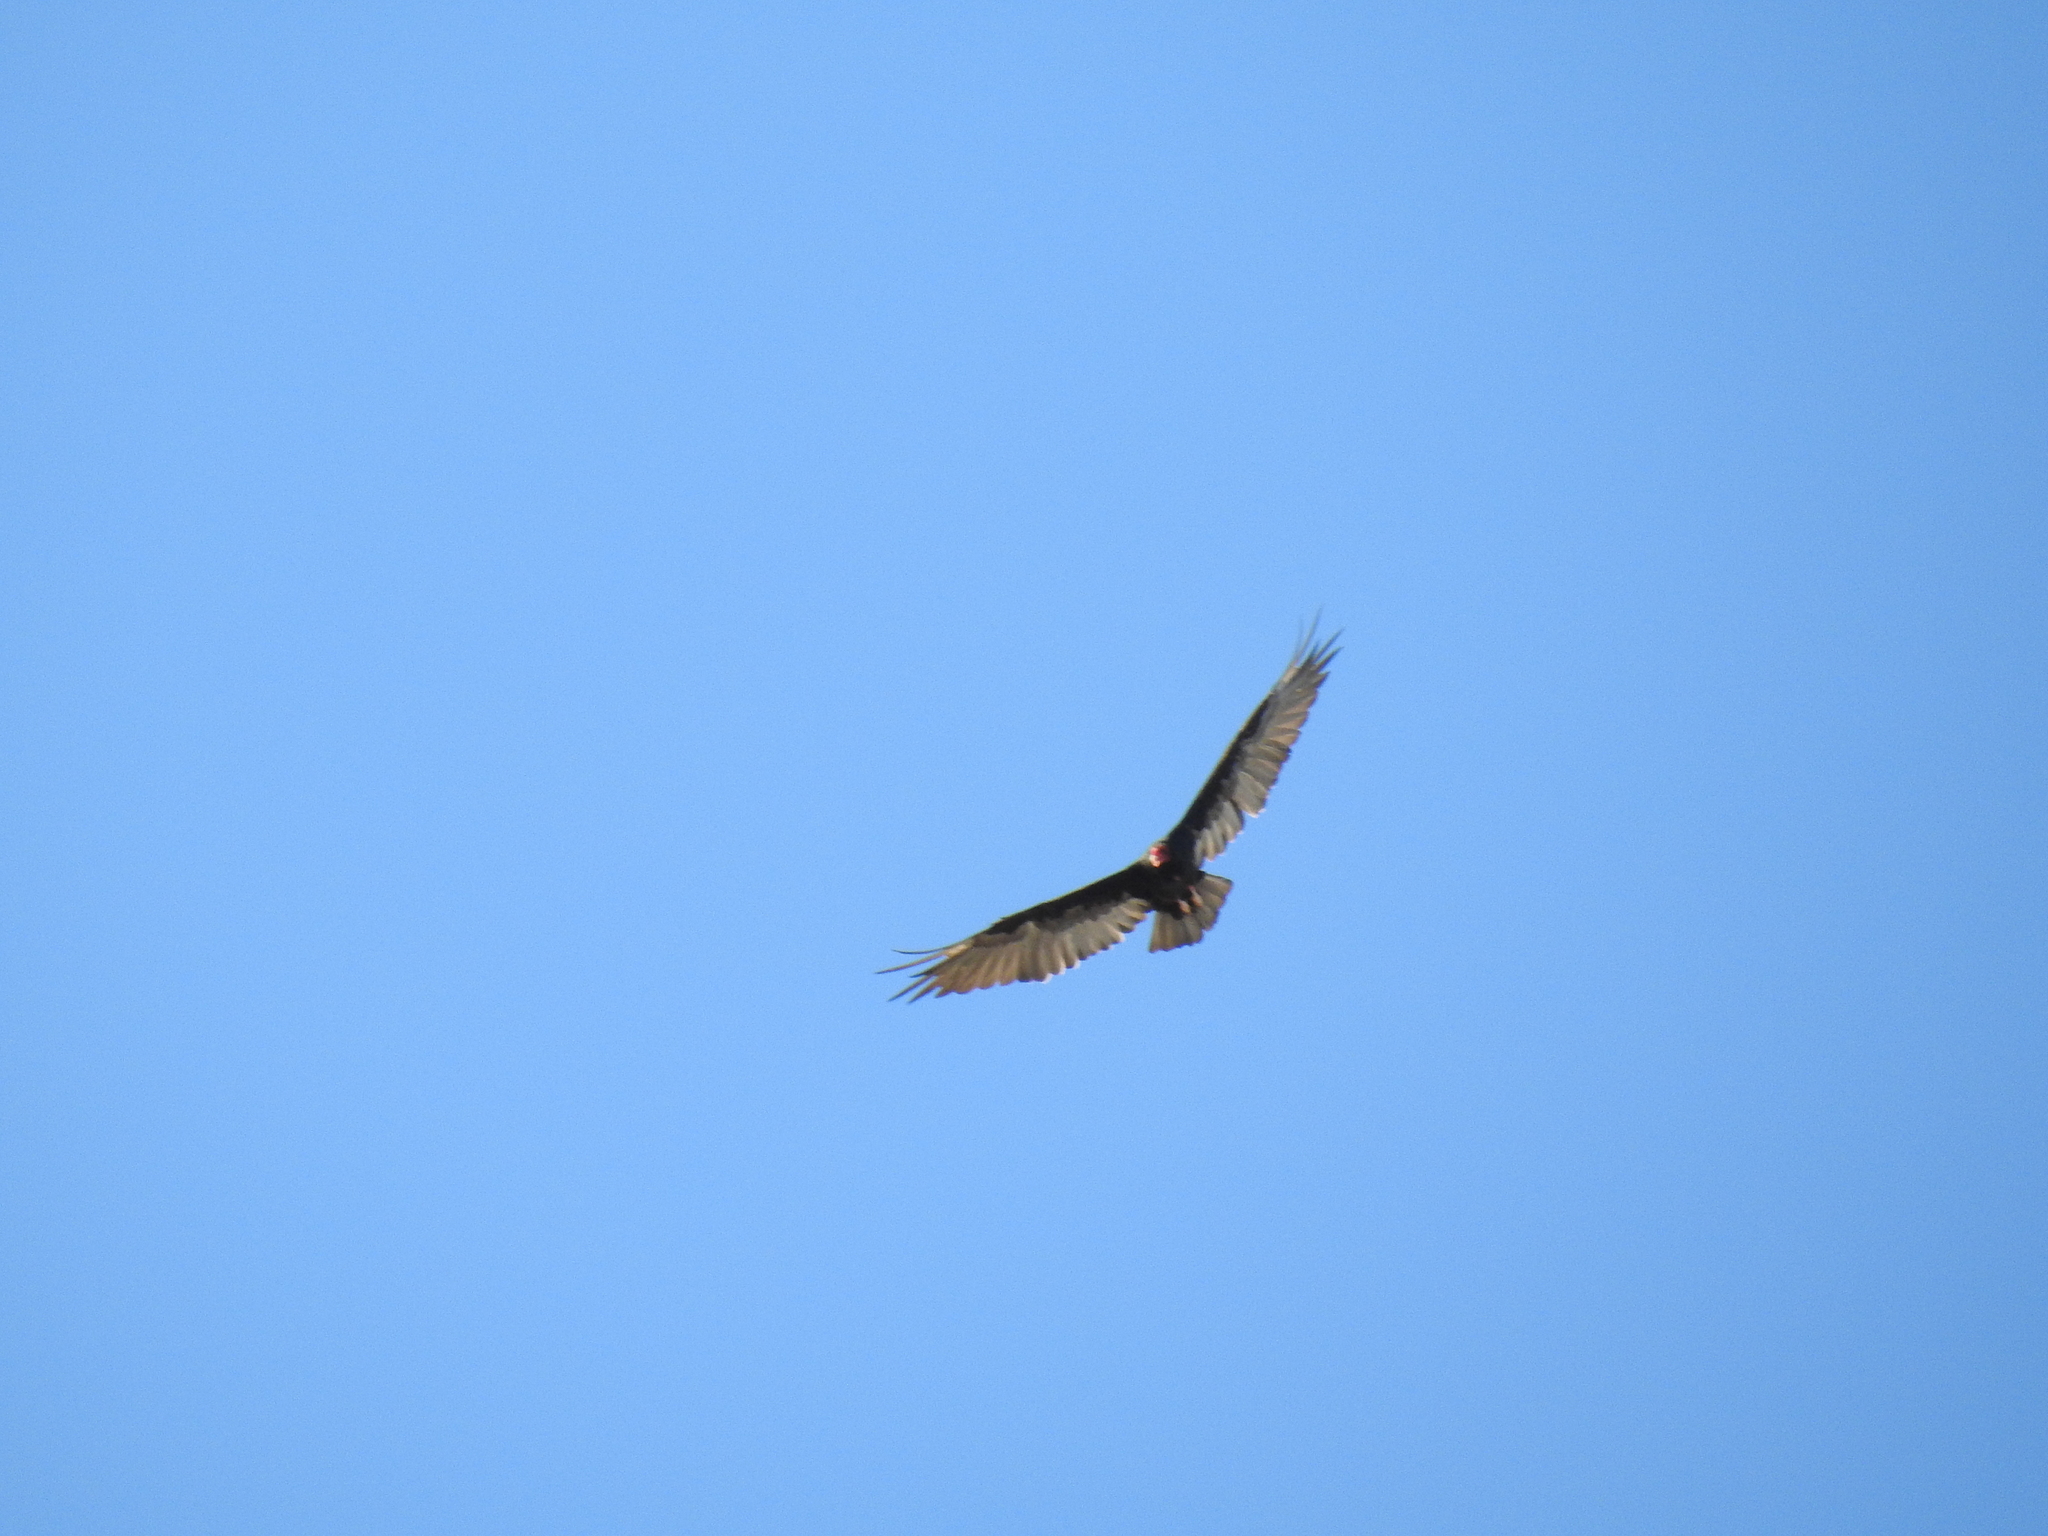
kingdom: Animalia
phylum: Chordata
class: Aves
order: Accipitriformes
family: Cathartidae
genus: Cathartes
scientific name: Cathartes aura
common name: Turkey vulture
